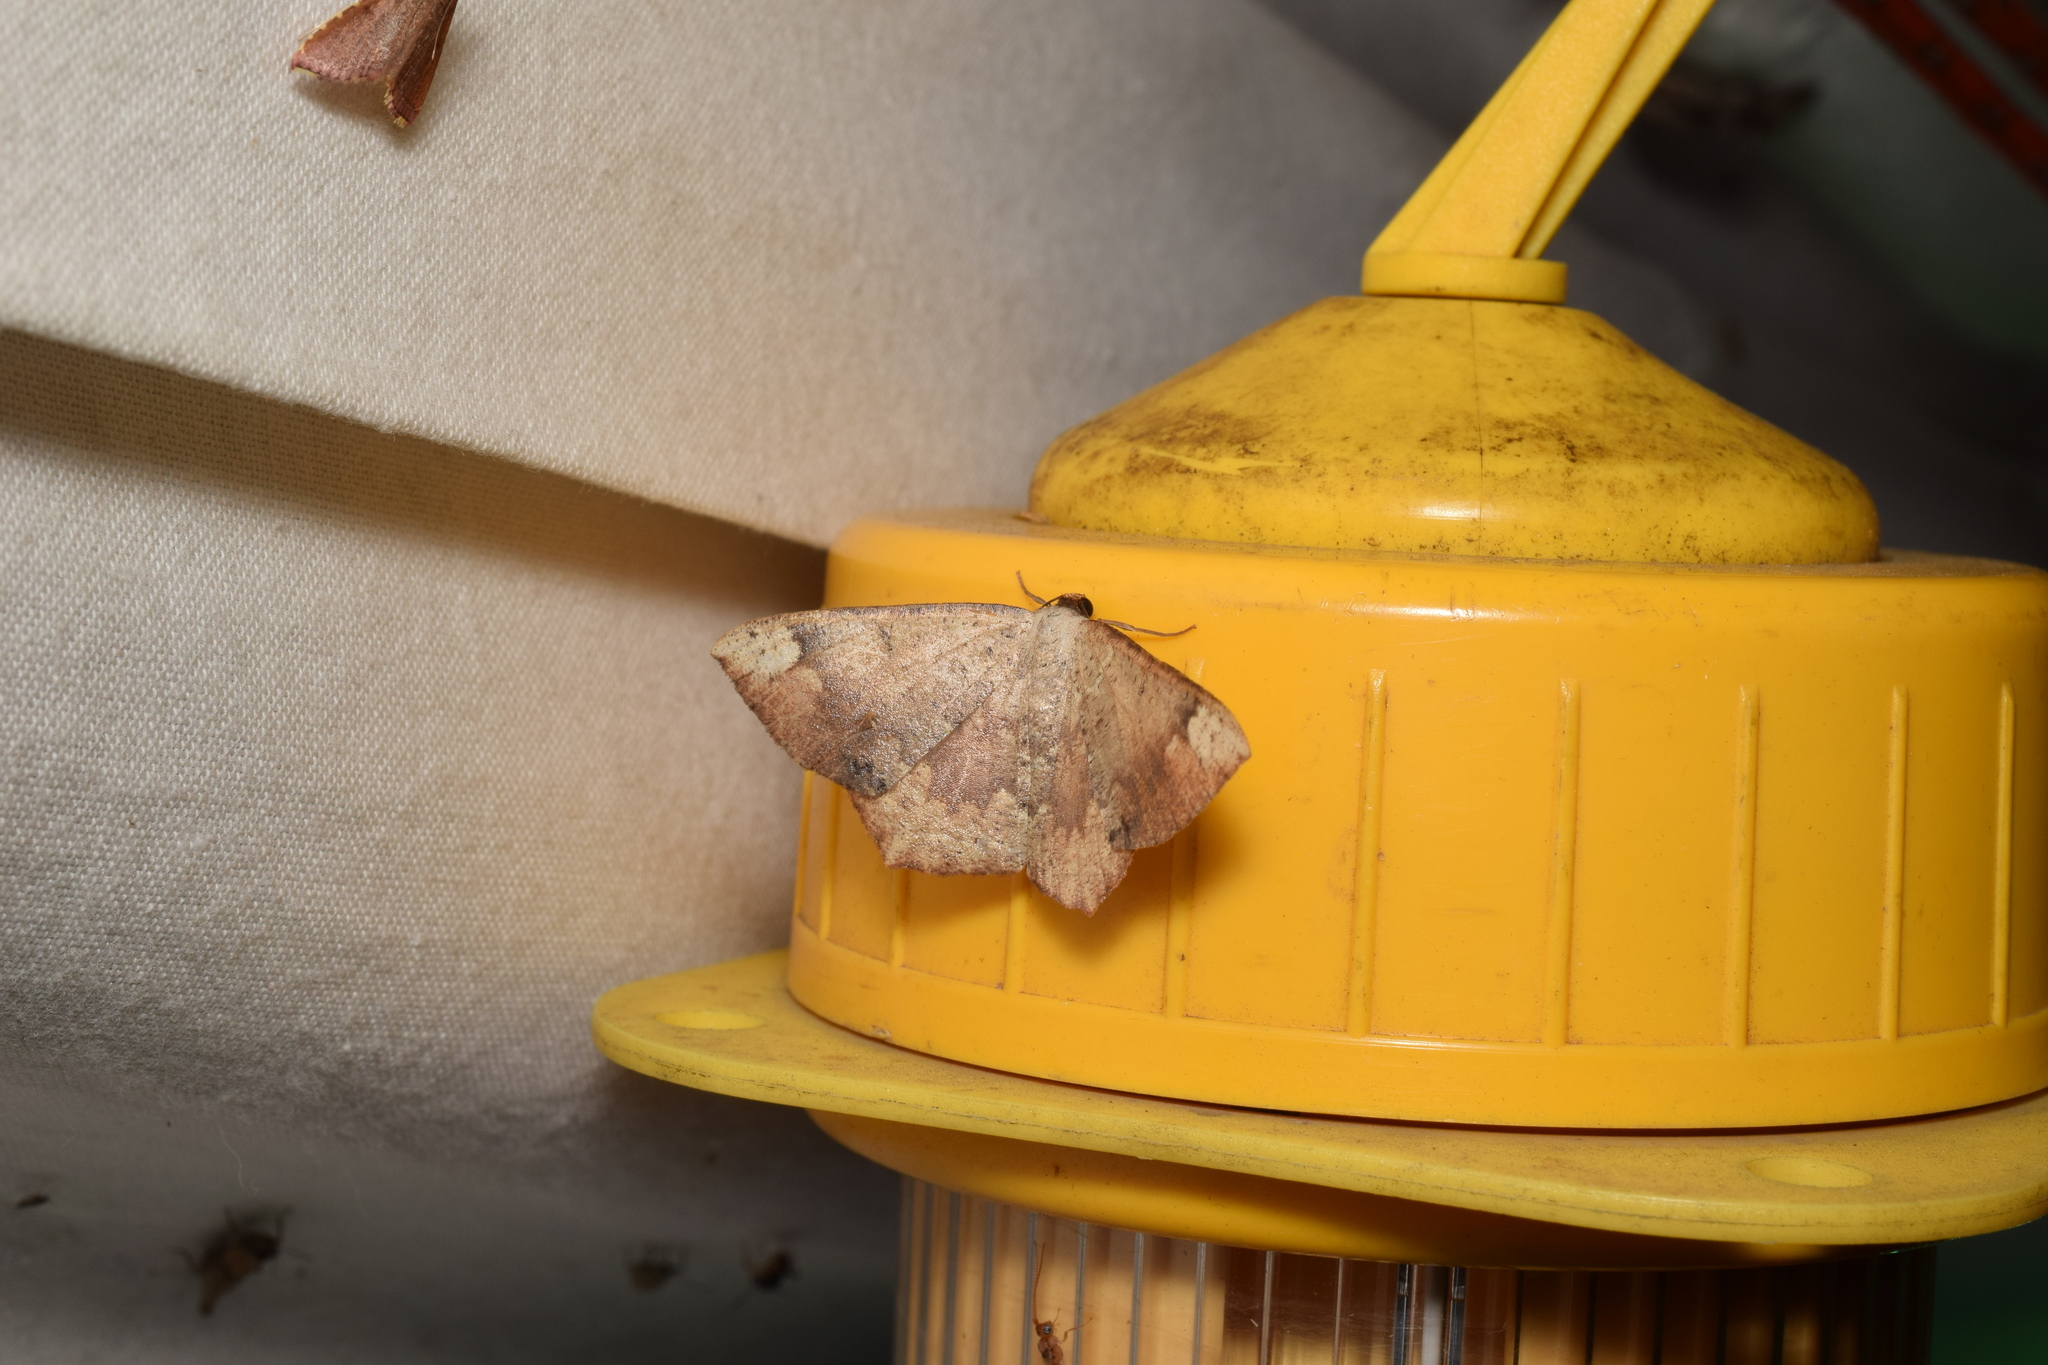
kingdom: Animalia
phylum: Arthropoda
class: Insecta
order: Lepidoptera
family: Geometridae
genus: Peratostega
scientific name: Peratostega deletaria
